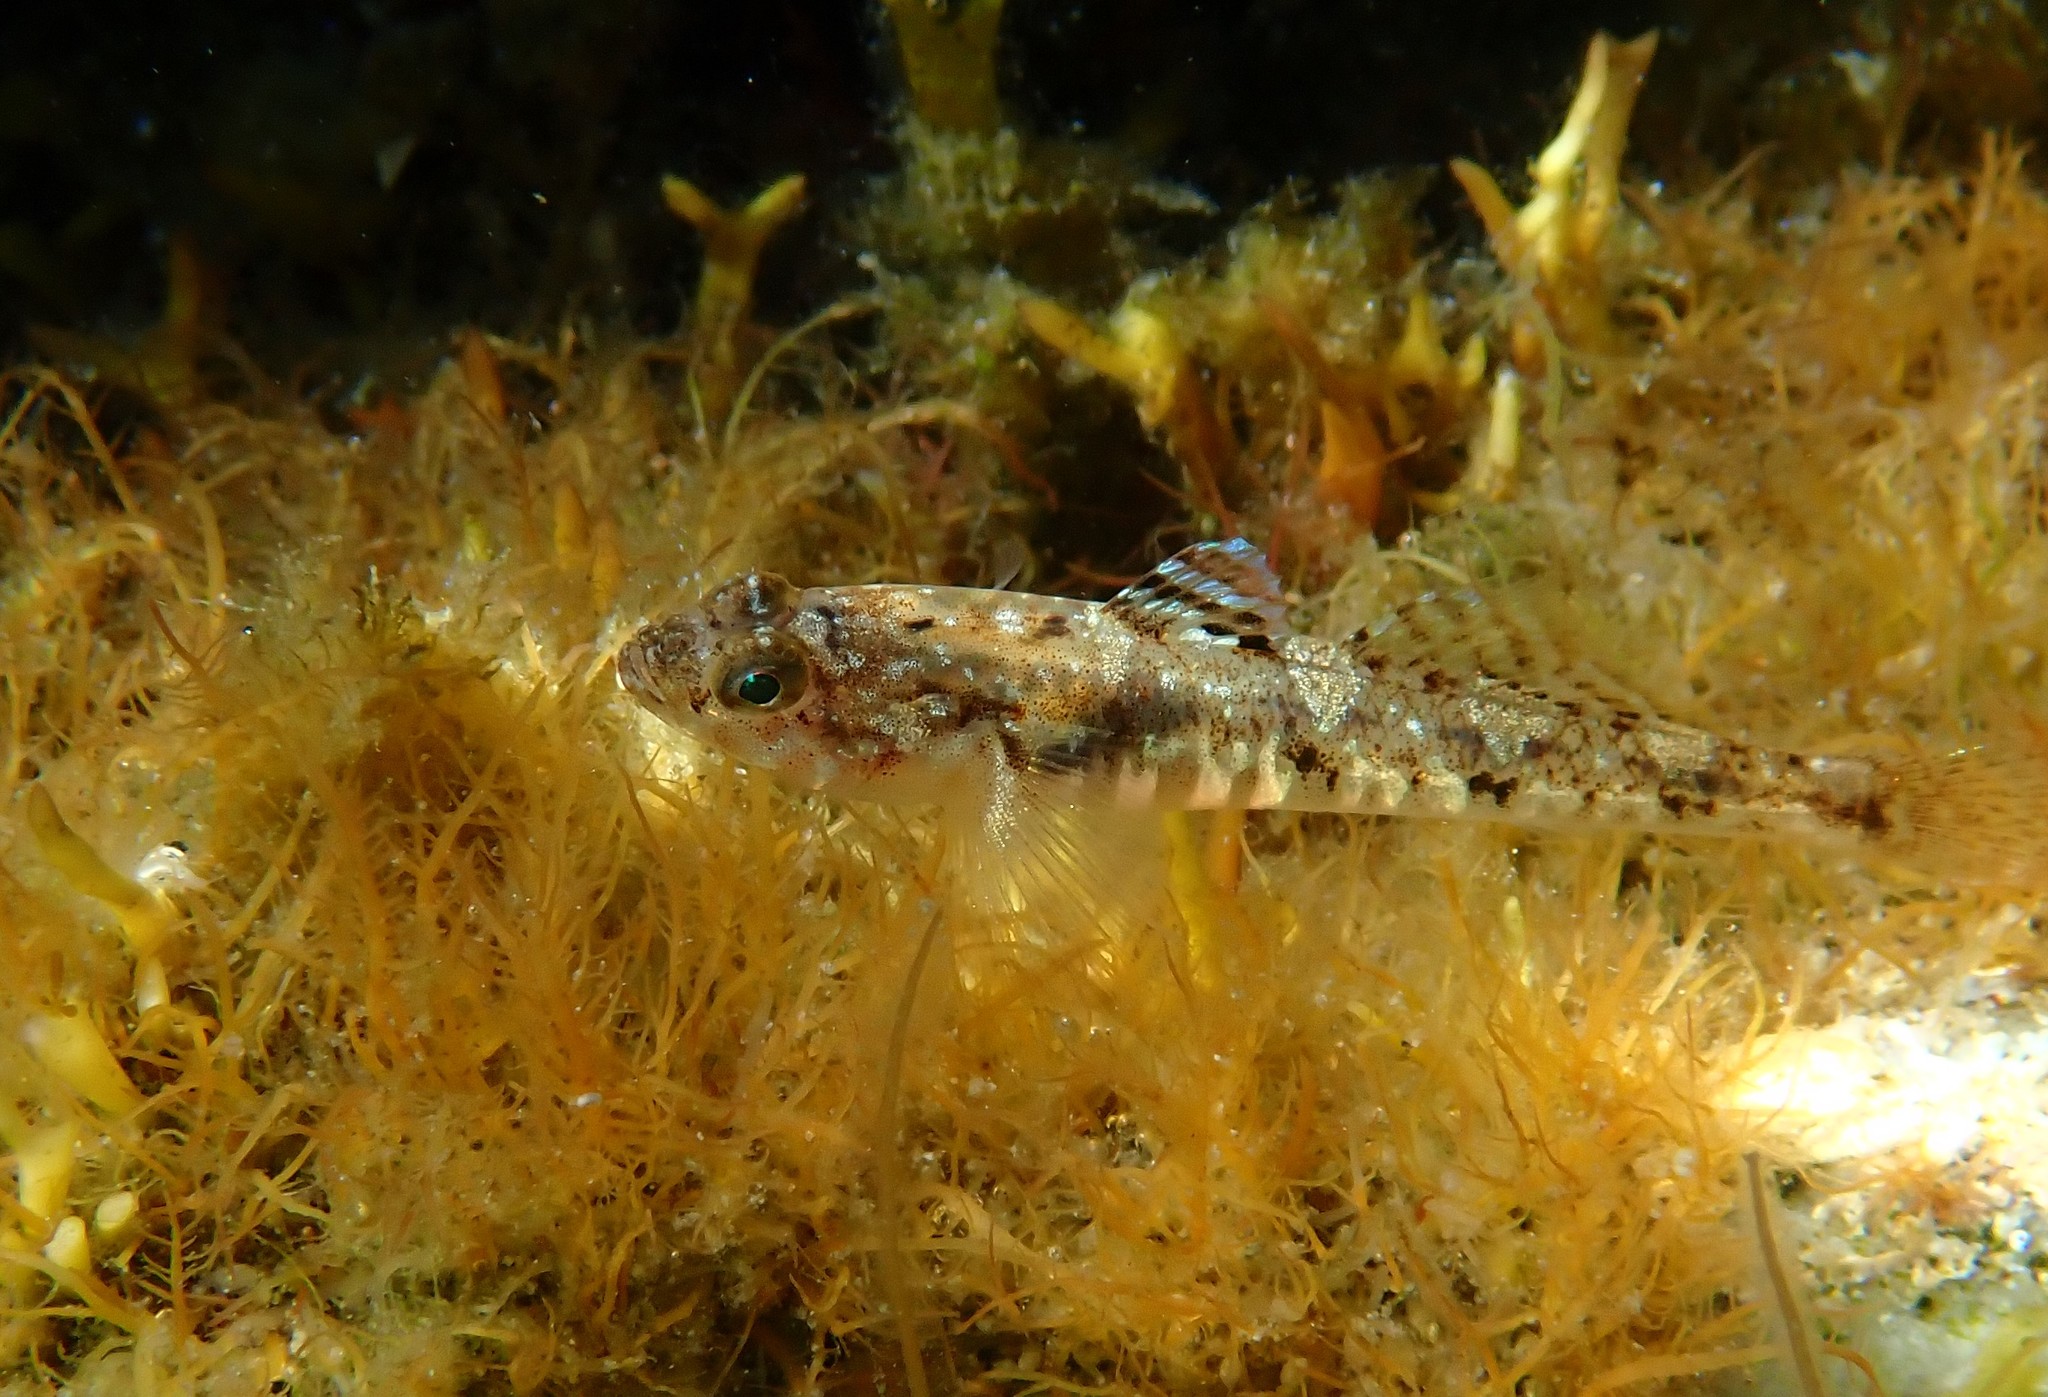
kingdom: Animalia
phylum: Chordata
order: Perciformes
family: Gobiidae
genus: Pomatoschistus
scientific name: Pomatoschistus pictus
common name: Painted goby
